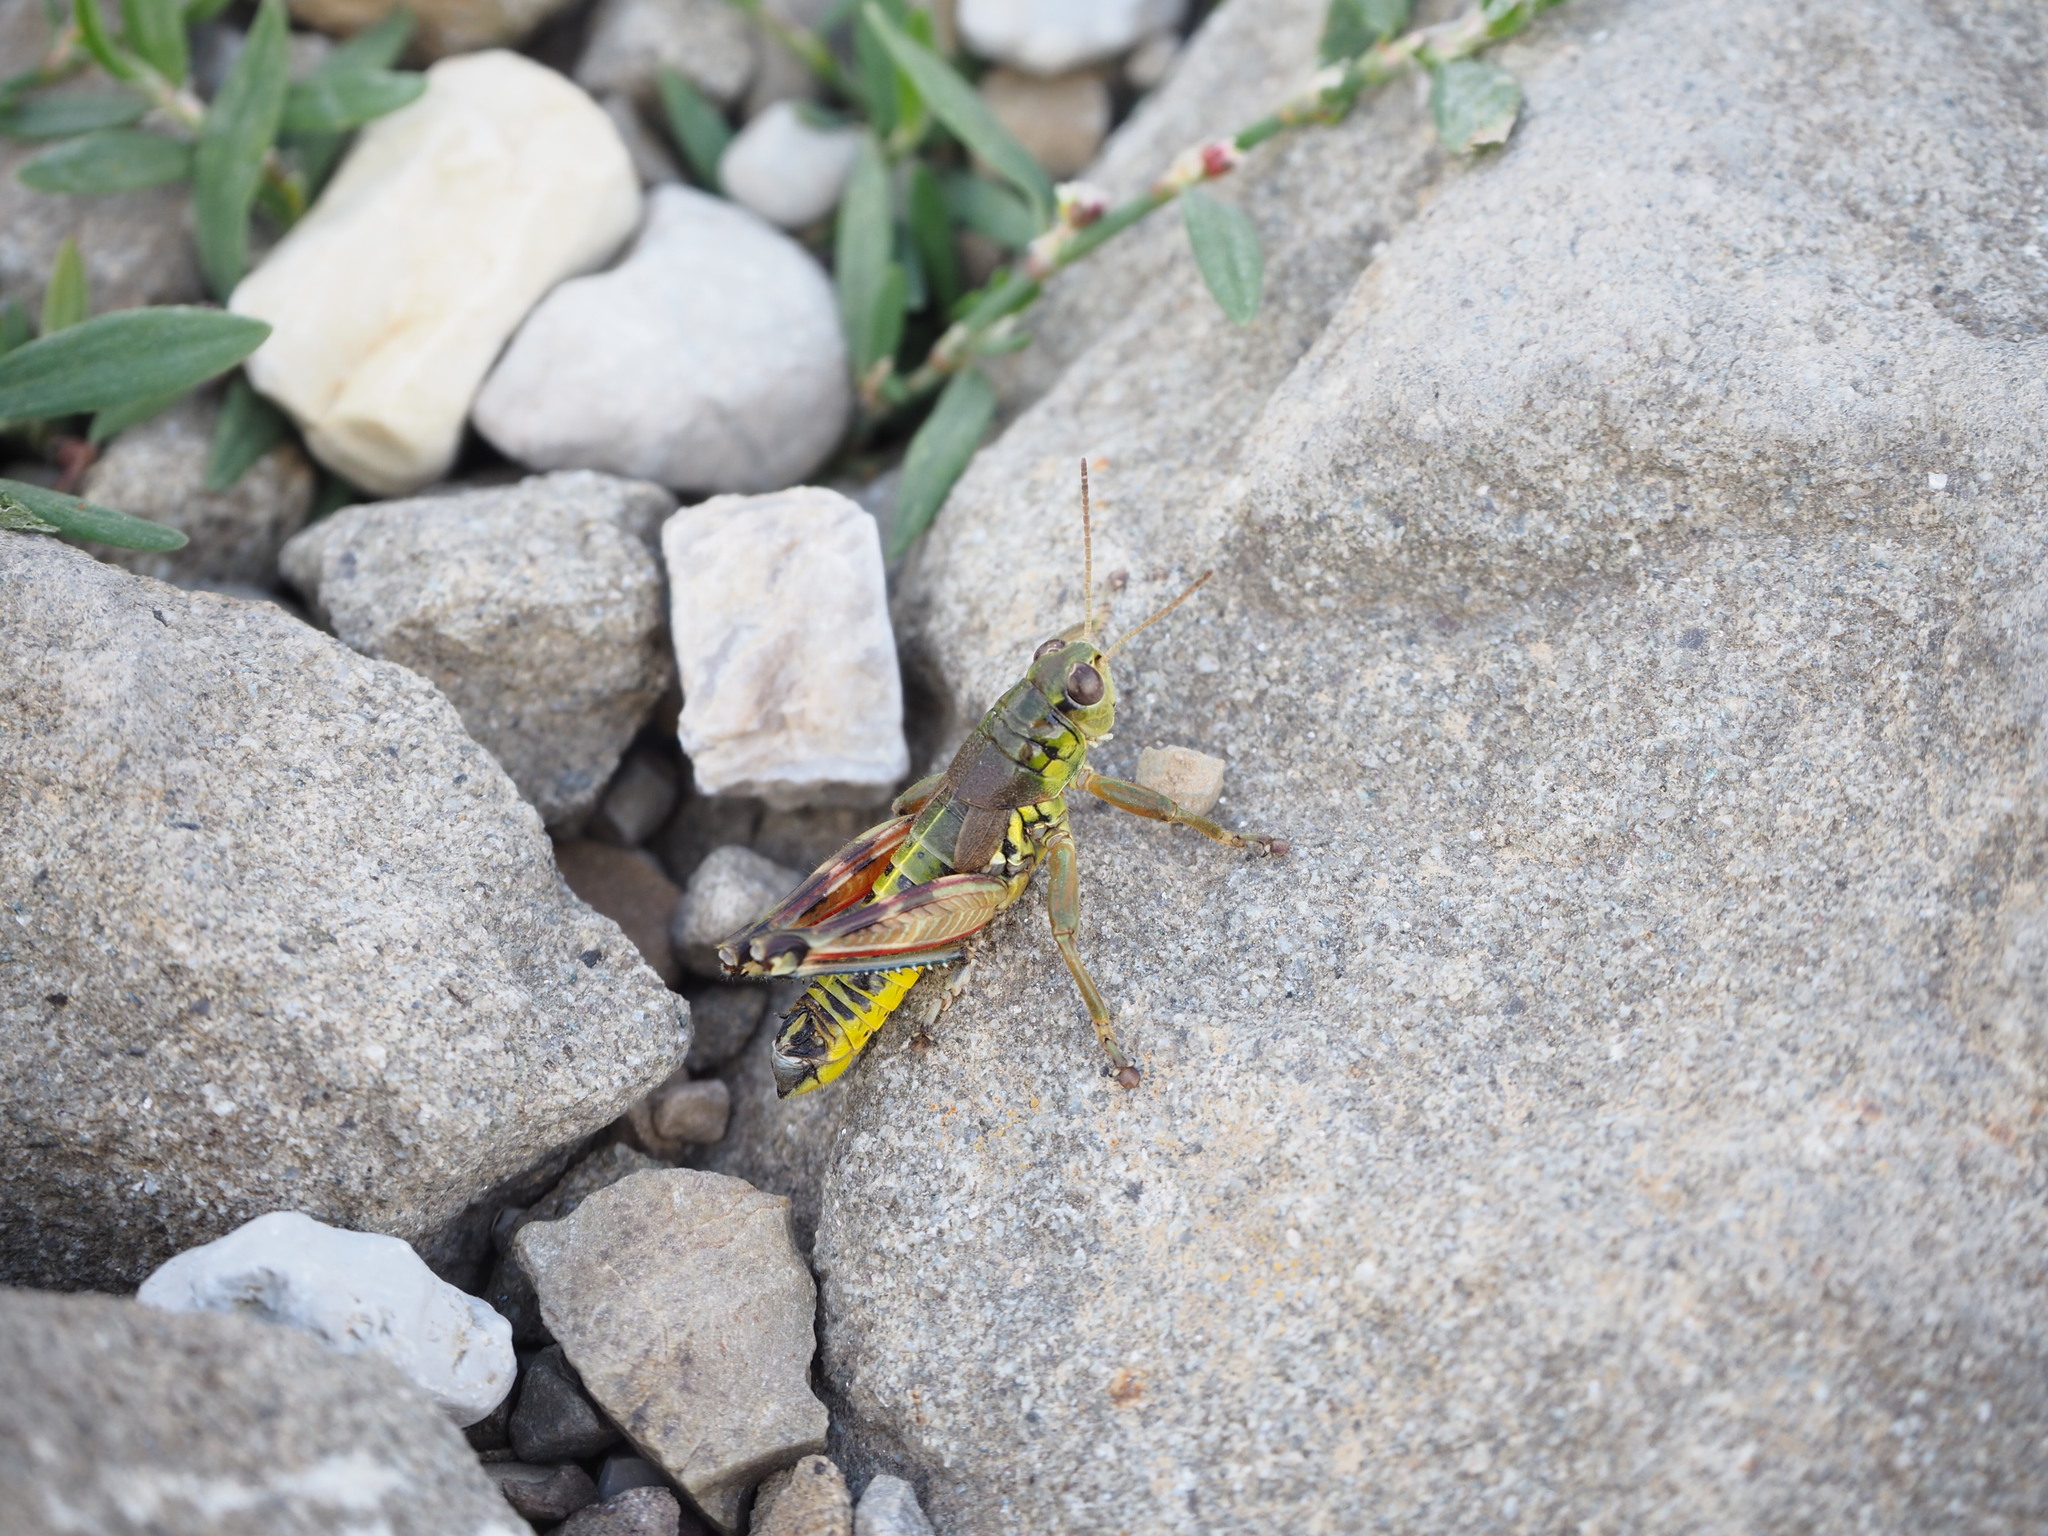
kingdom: Animalia
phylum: Arthropoda
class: Insecta
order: Orthoptera
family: Acrididae
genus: Podisma
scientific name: Podisma emiliae
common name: Emilia mountain grasshopper
